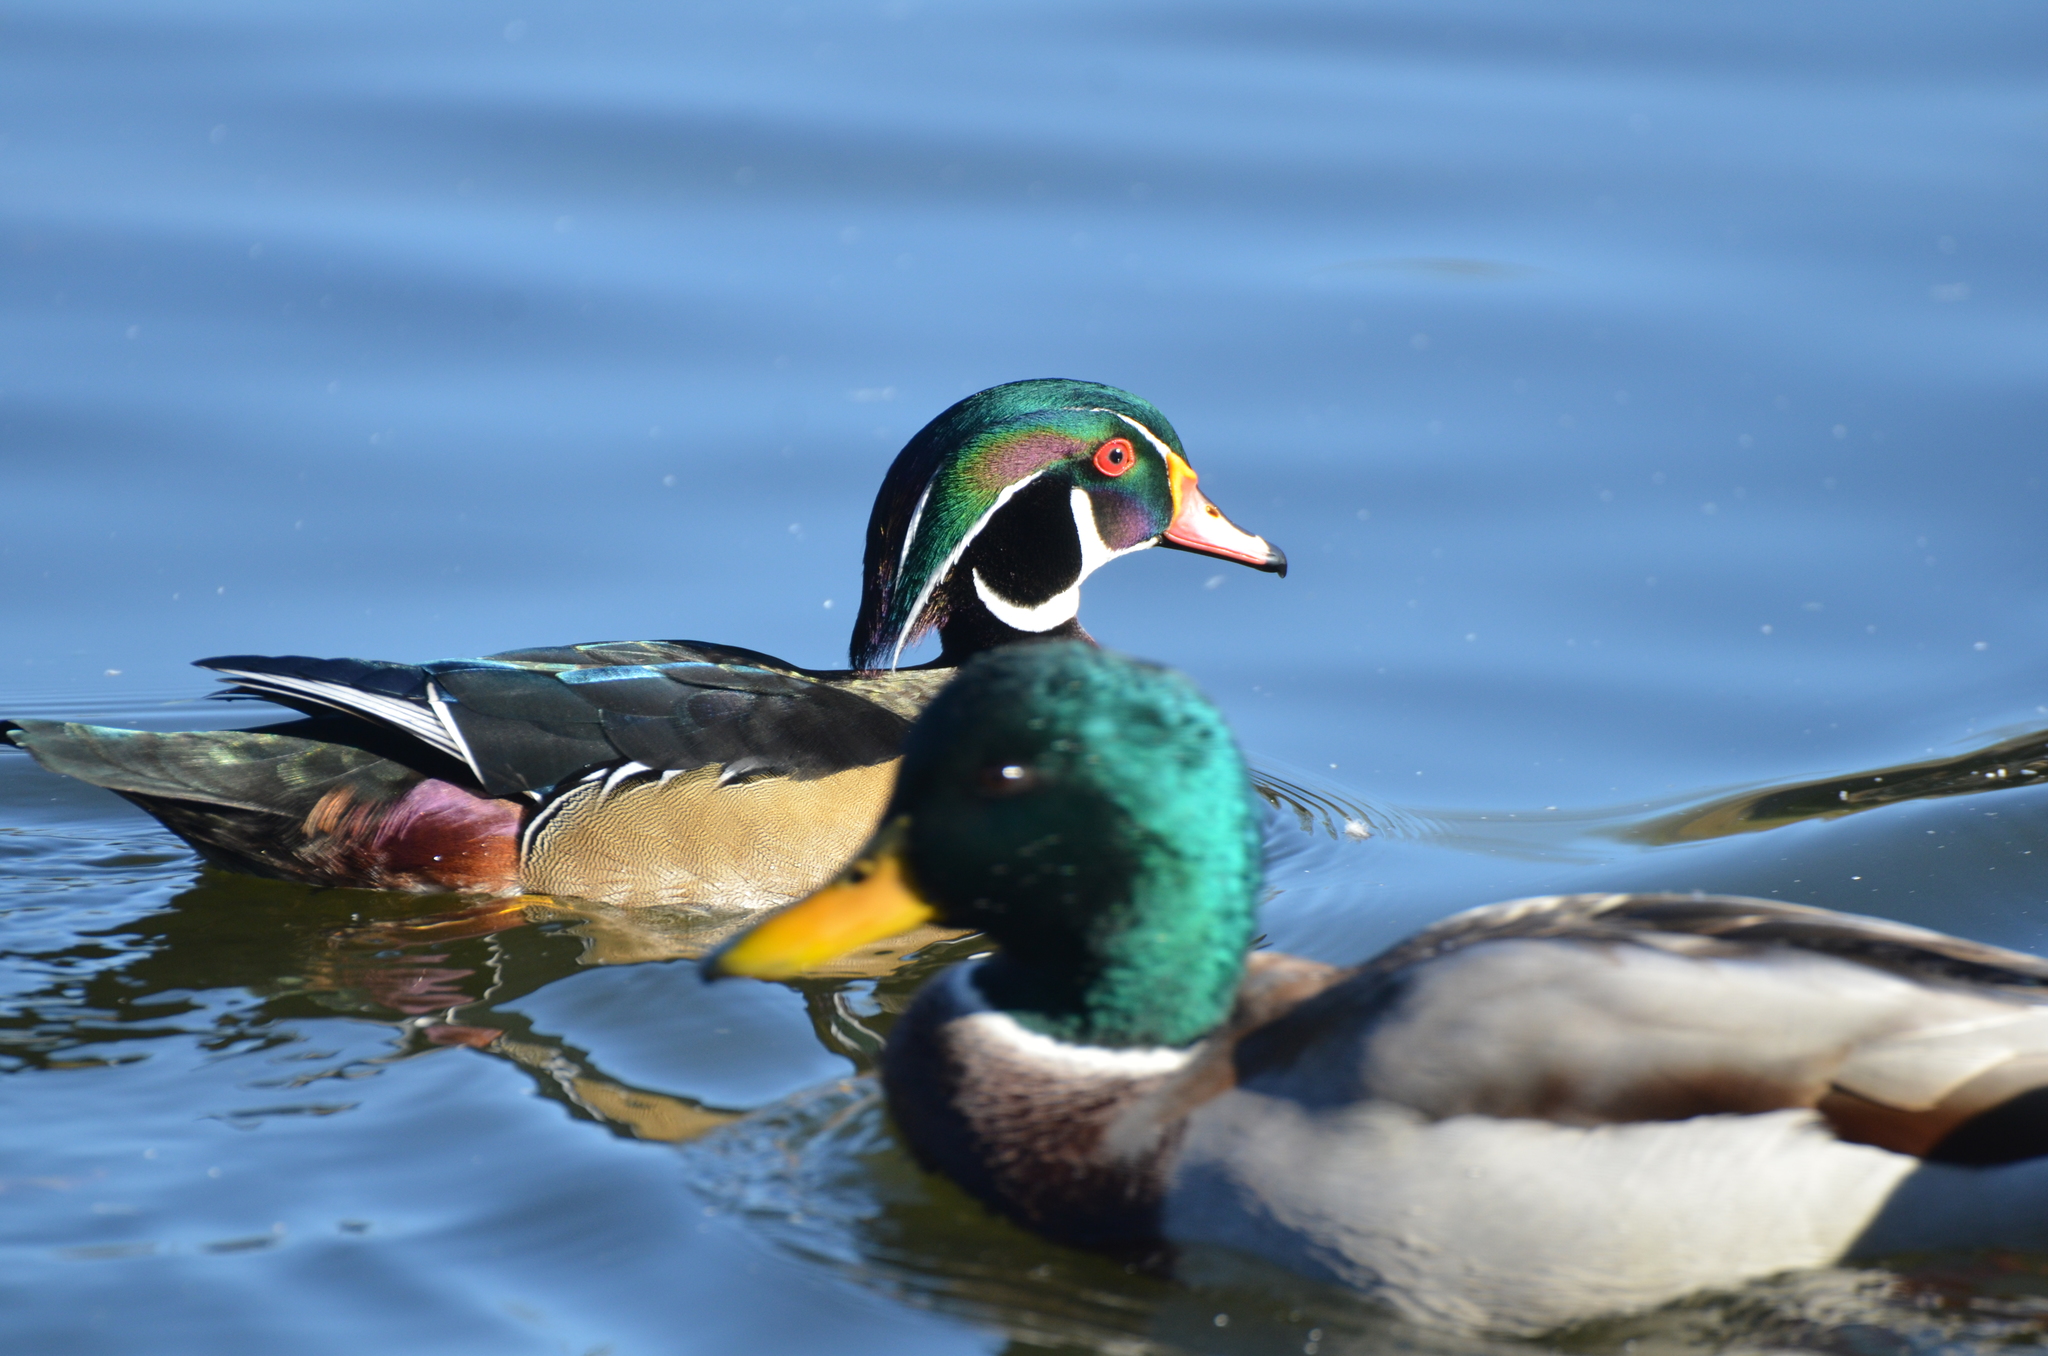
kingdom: Animalia
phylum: Chordata
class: Aves
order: Anseriformes
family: Anatidae
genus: Aix
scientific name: Aix sponsa
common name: Wood duck
